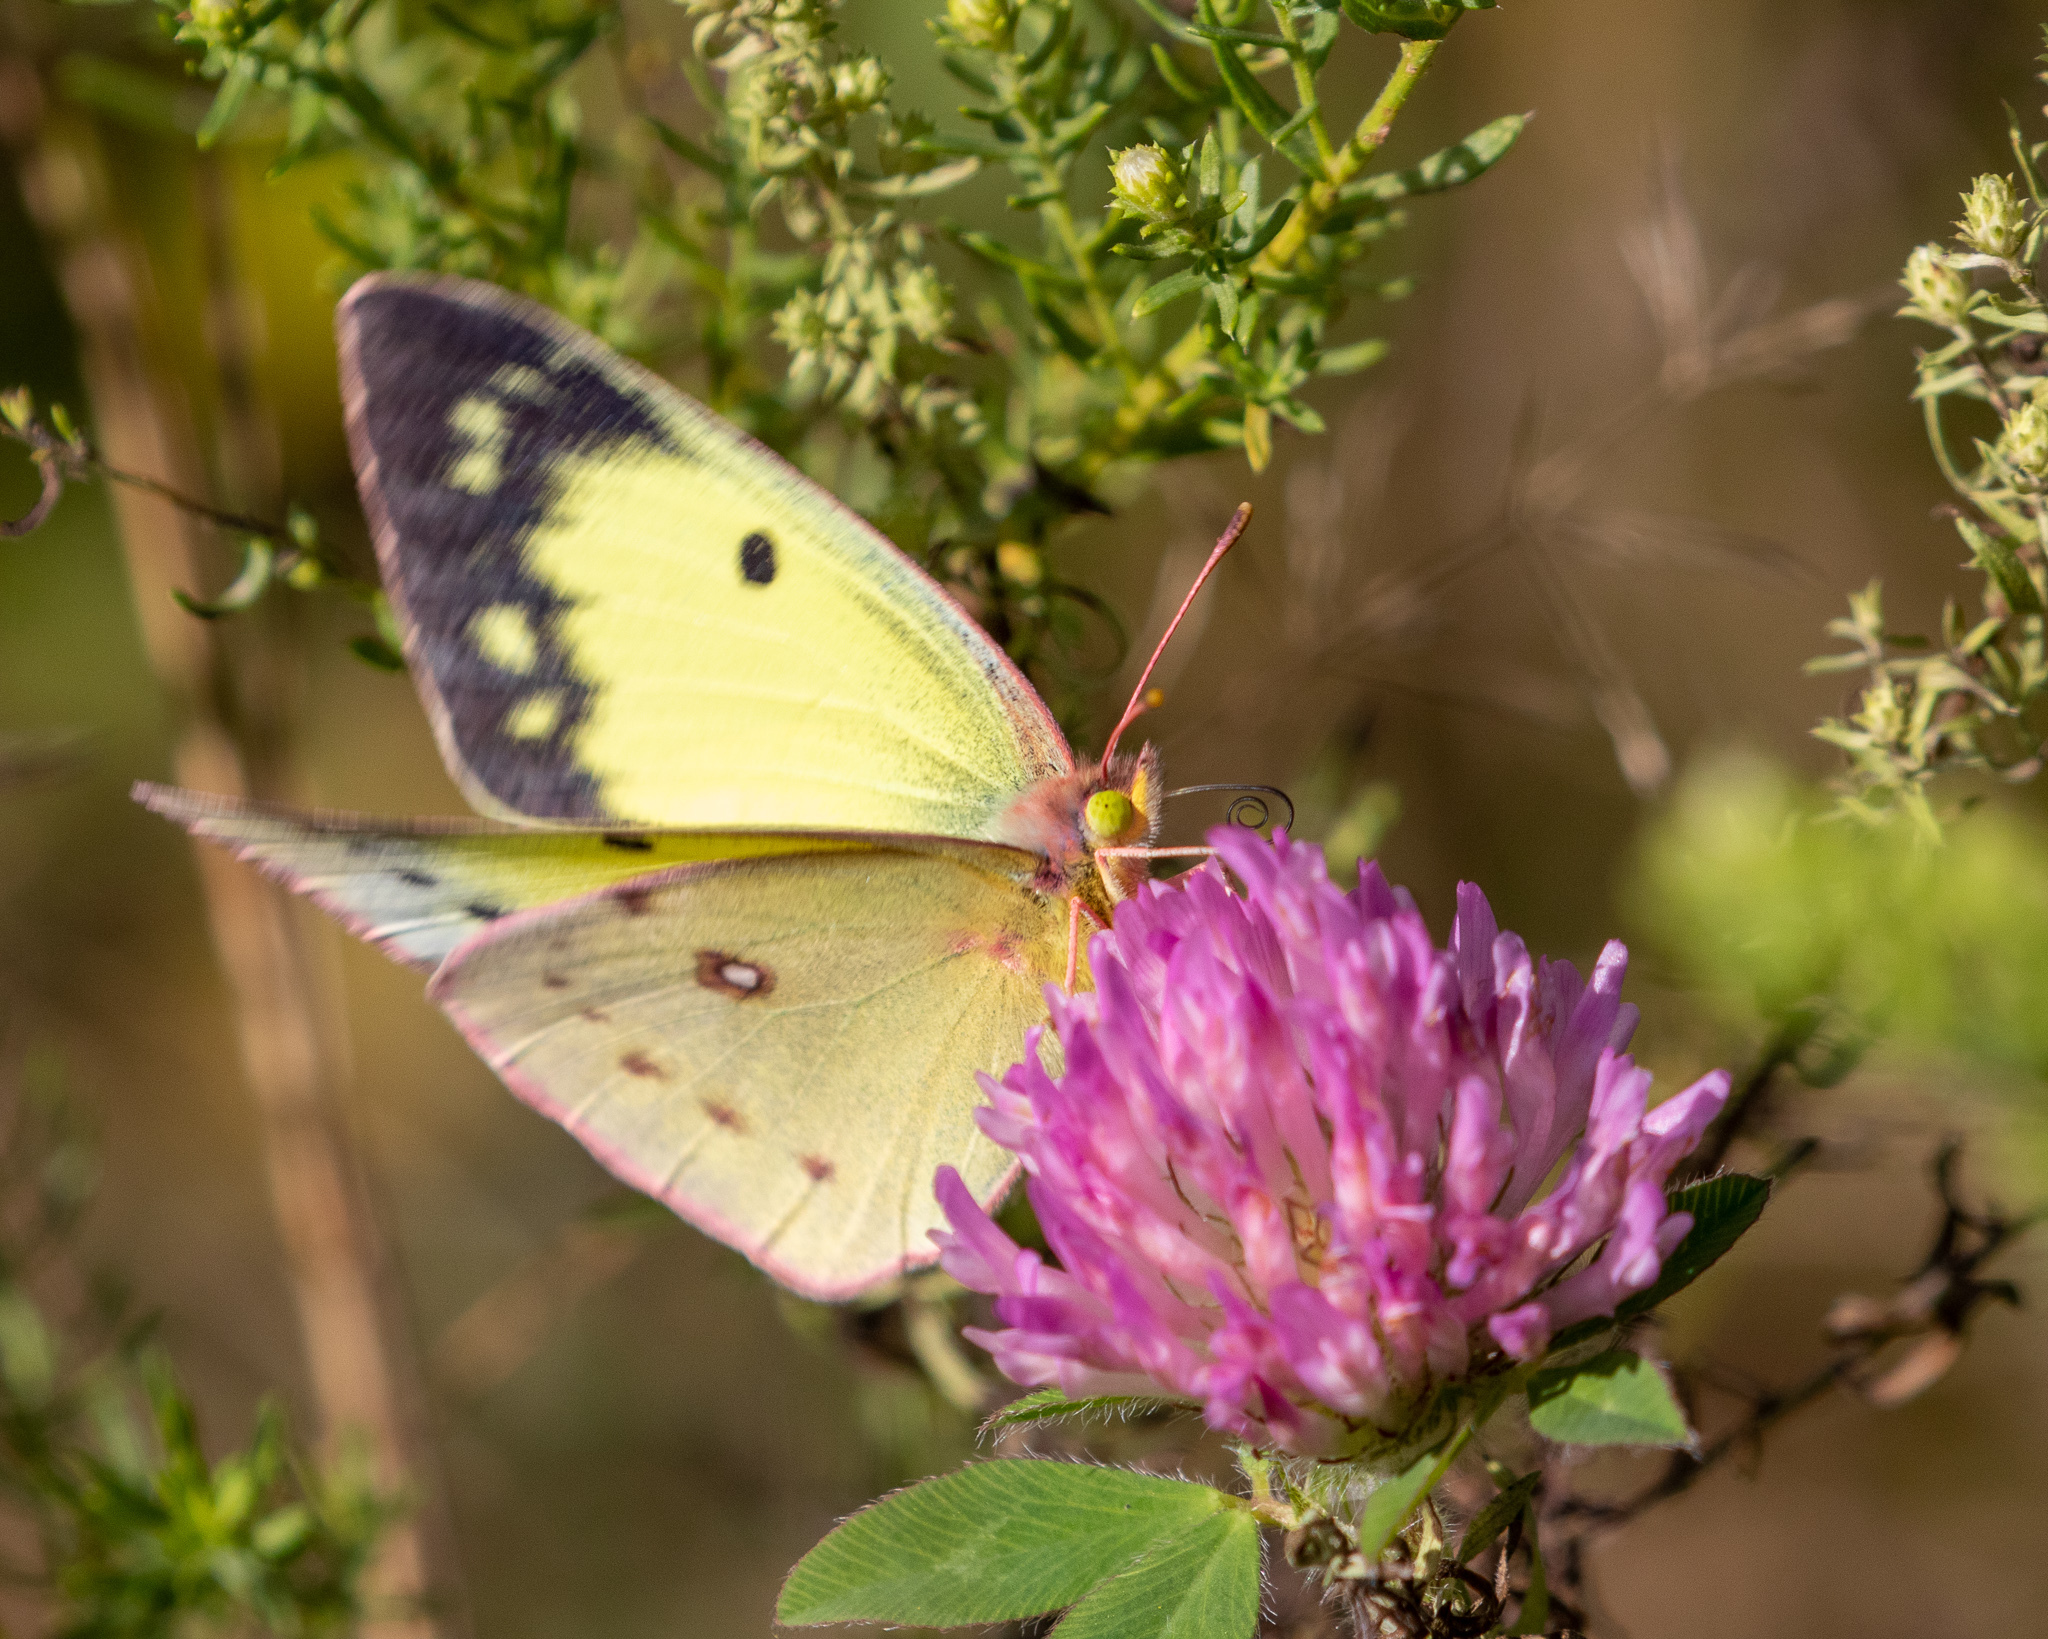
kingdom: Animalia
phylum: Arthropoda
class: Insecta
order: Lepidoptera
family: Pieridae
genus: Colias
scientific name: Colias philodice
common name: Clouded sulphur
